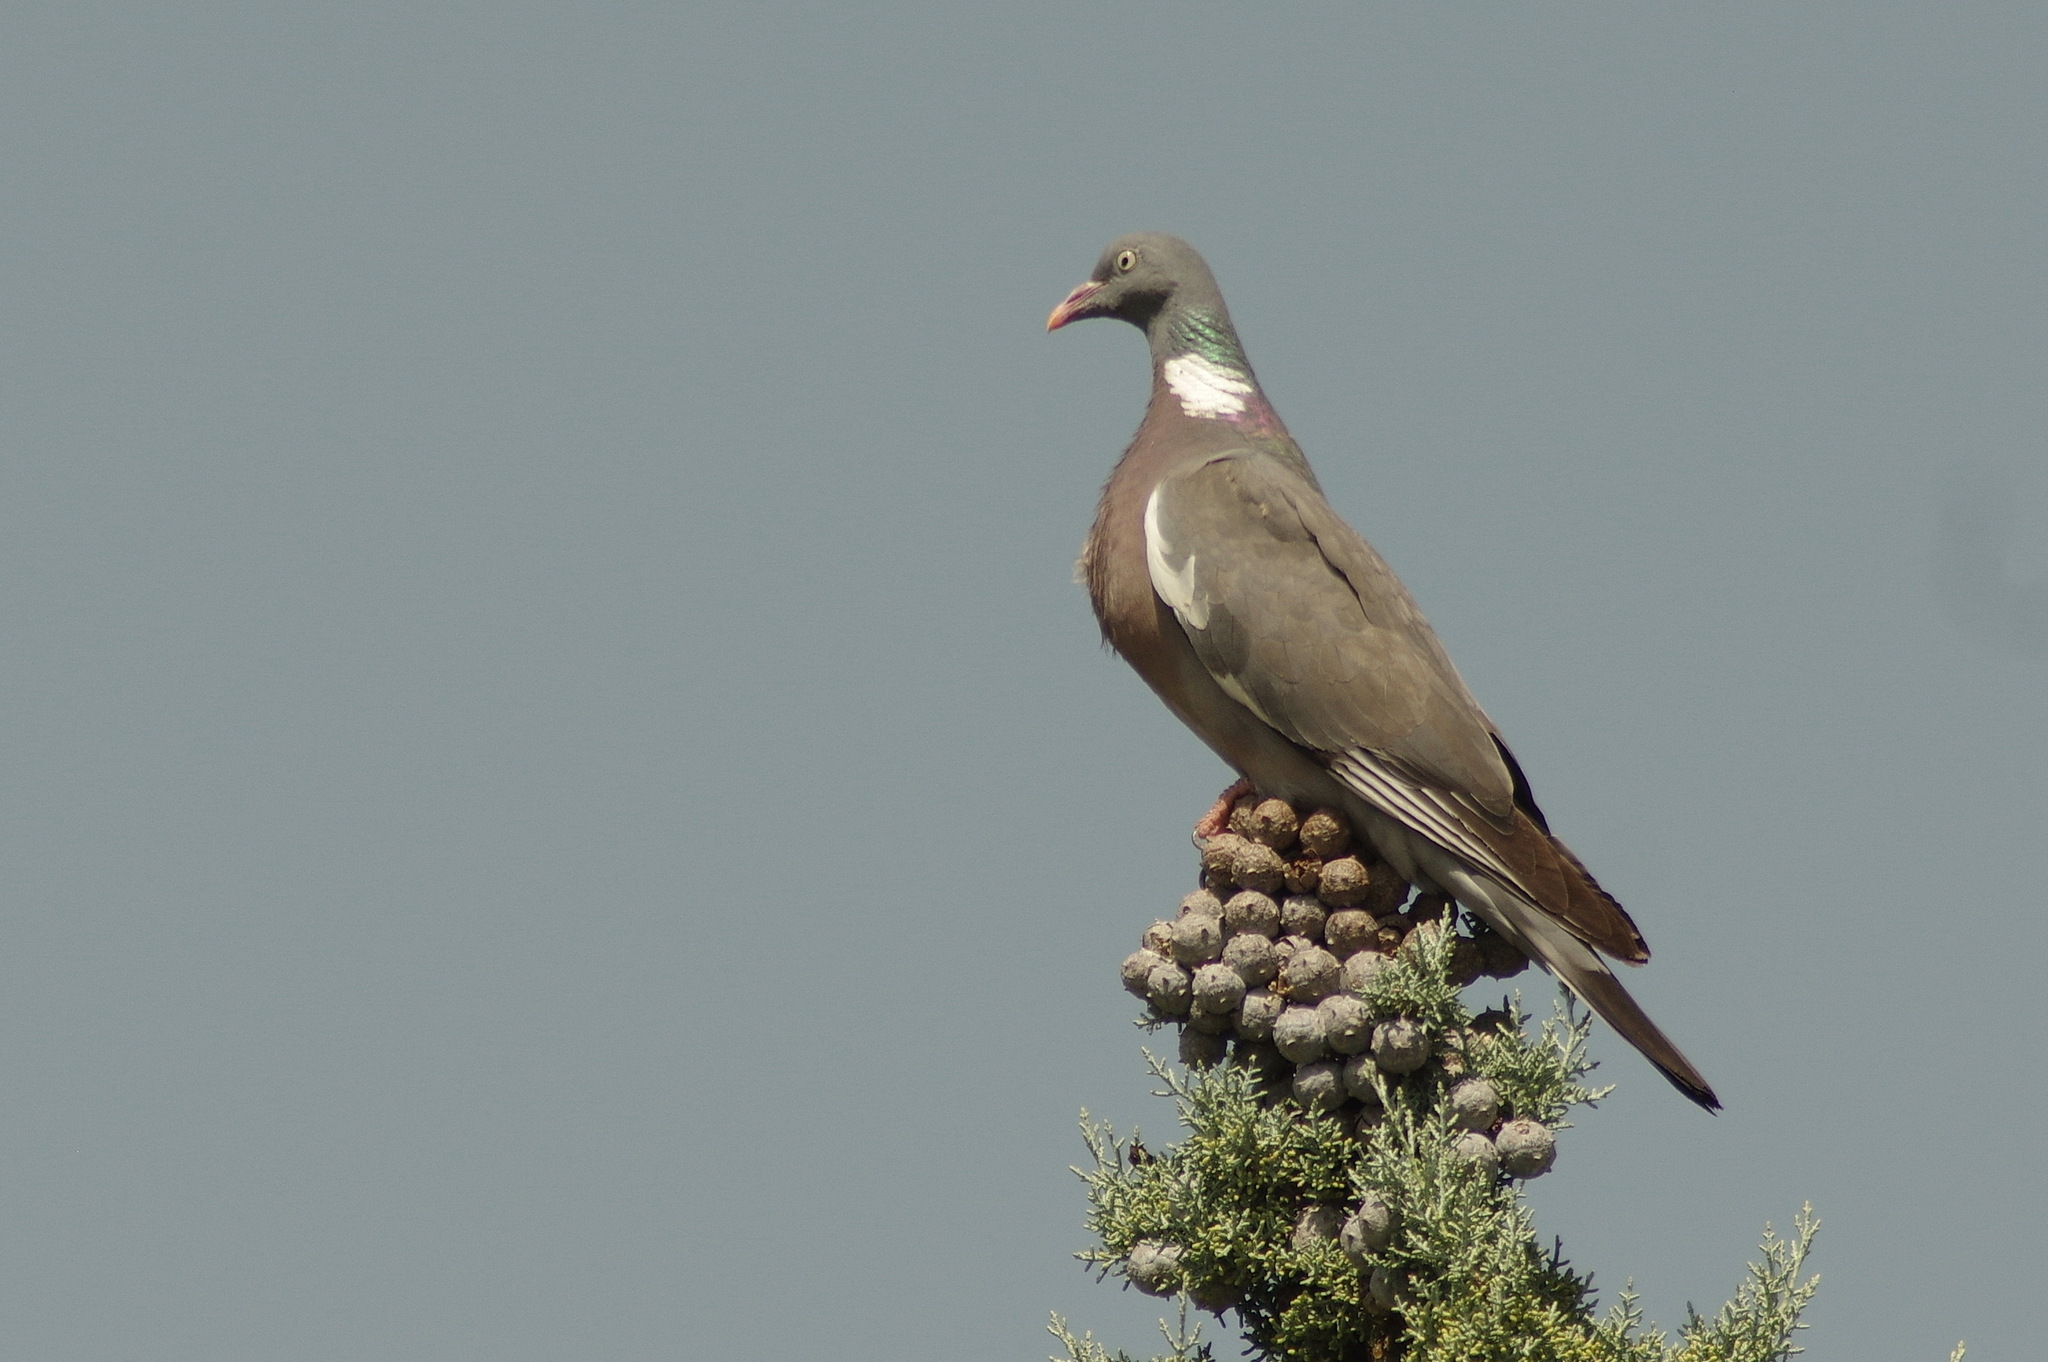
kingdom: Animalia
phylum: Chordata
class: Aves
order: Columbiformes
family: Columbidae
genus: Columba
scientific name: Columba palumbus
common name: Common wood pigeon
